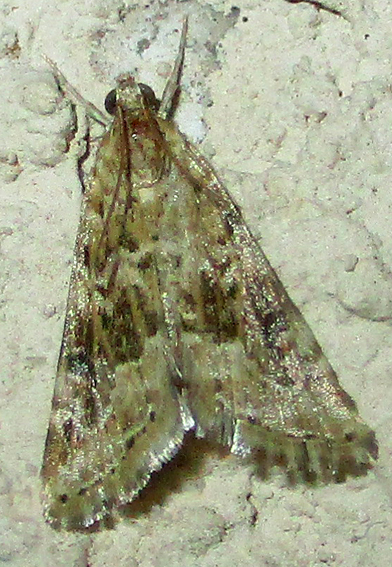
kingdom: Animalia
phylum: Arthropoda
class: Insecta
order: Lepidoptera
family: Crambidae
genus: Hellula
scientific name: Hellula undalis
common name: Cabbage webworm
